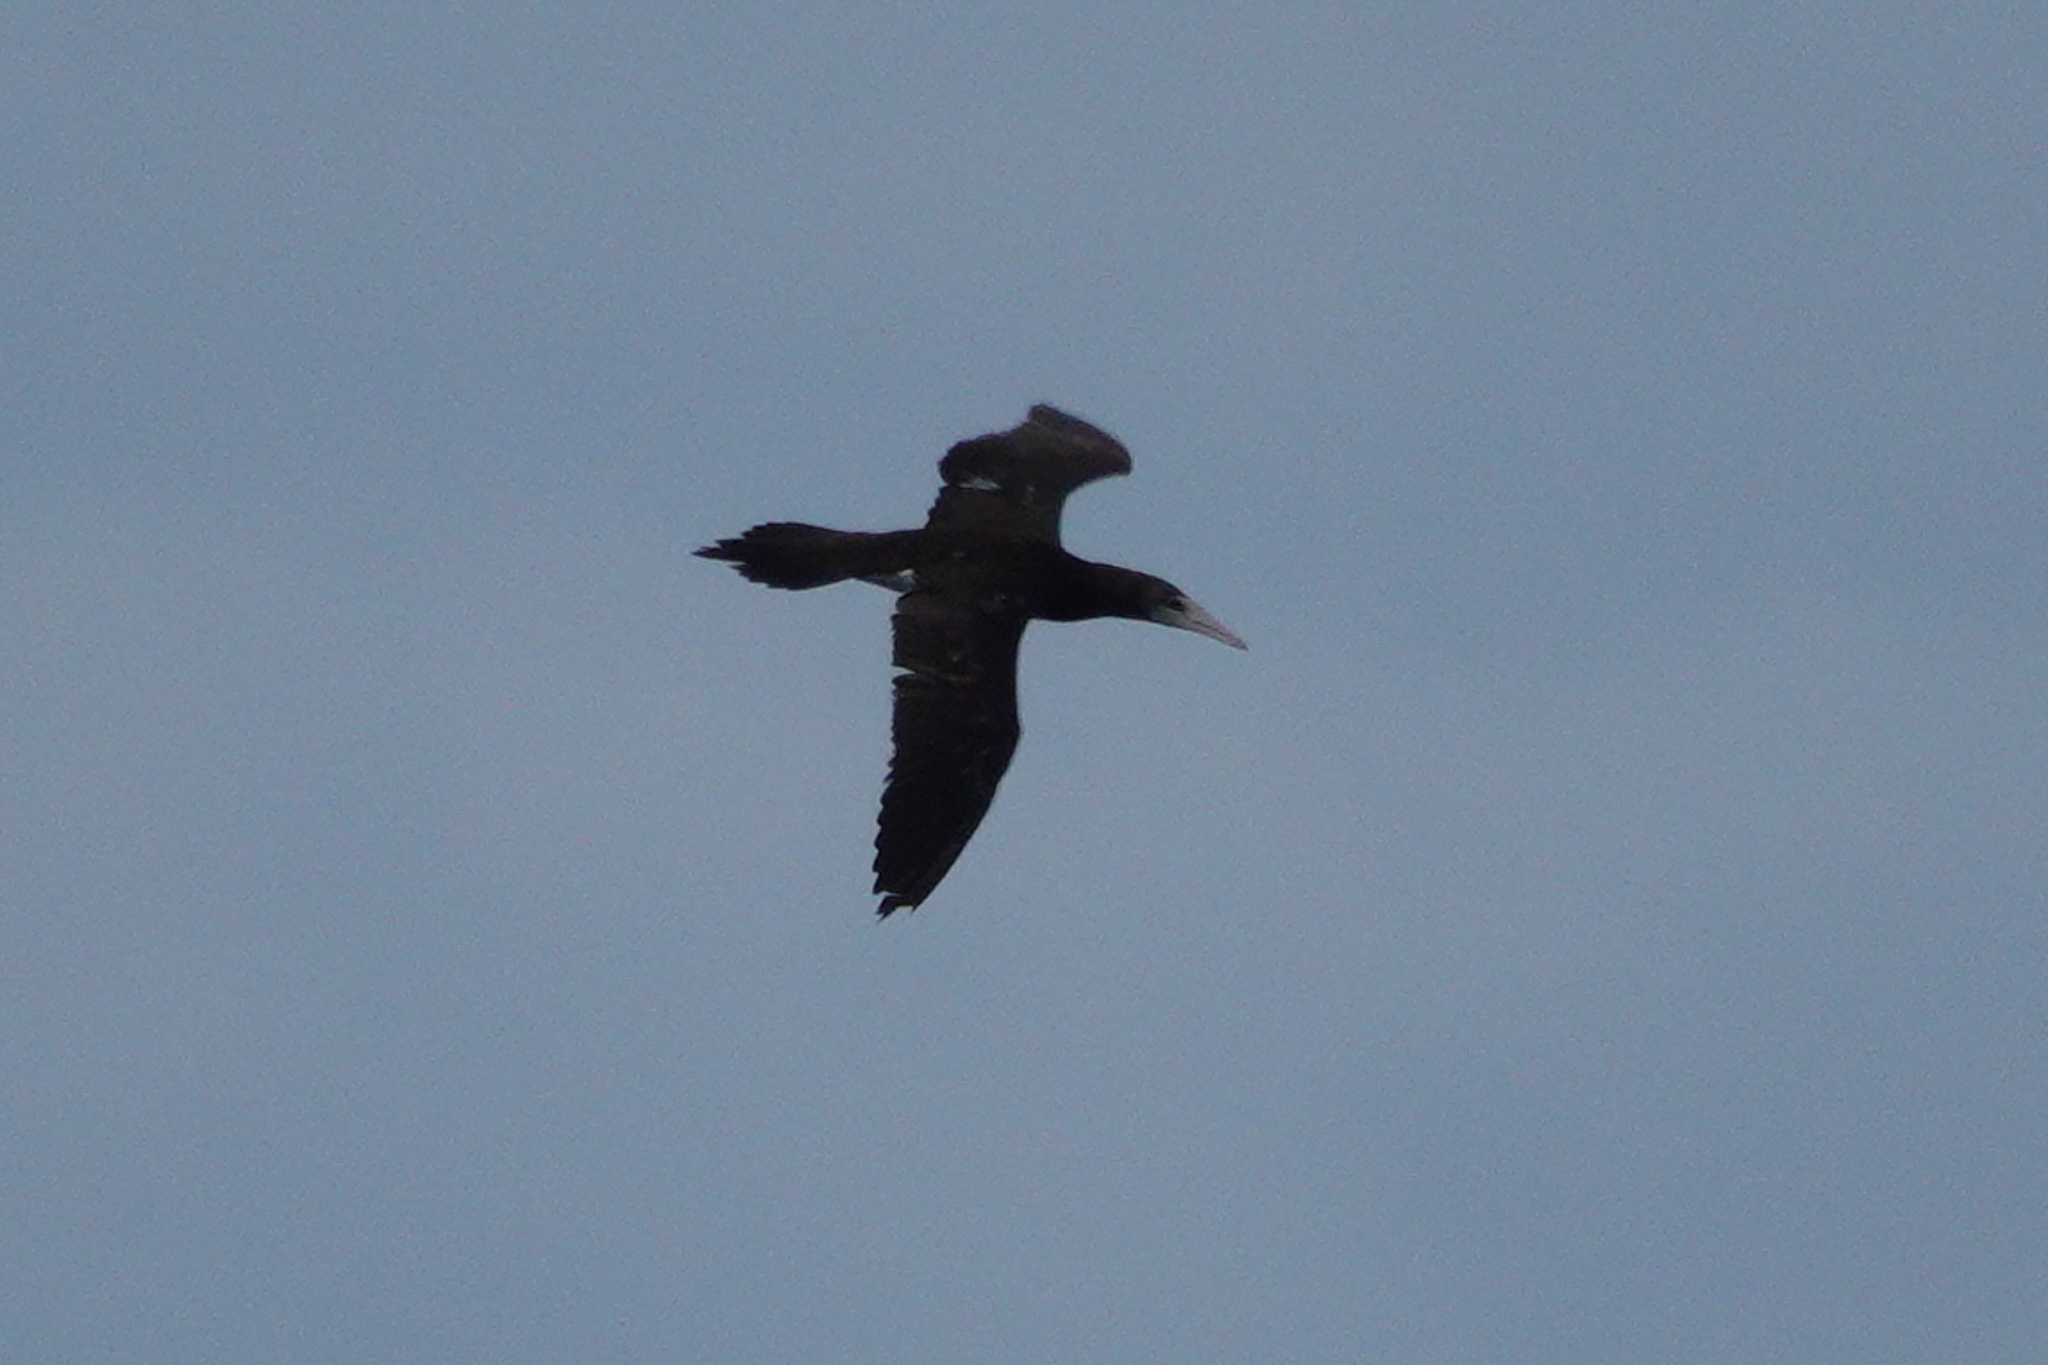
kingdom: Animalia
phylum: Chordata
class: Aves
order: Suliformes
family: Sulidae
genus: Sula
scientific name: Sula leucogaster
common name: Brown booby
